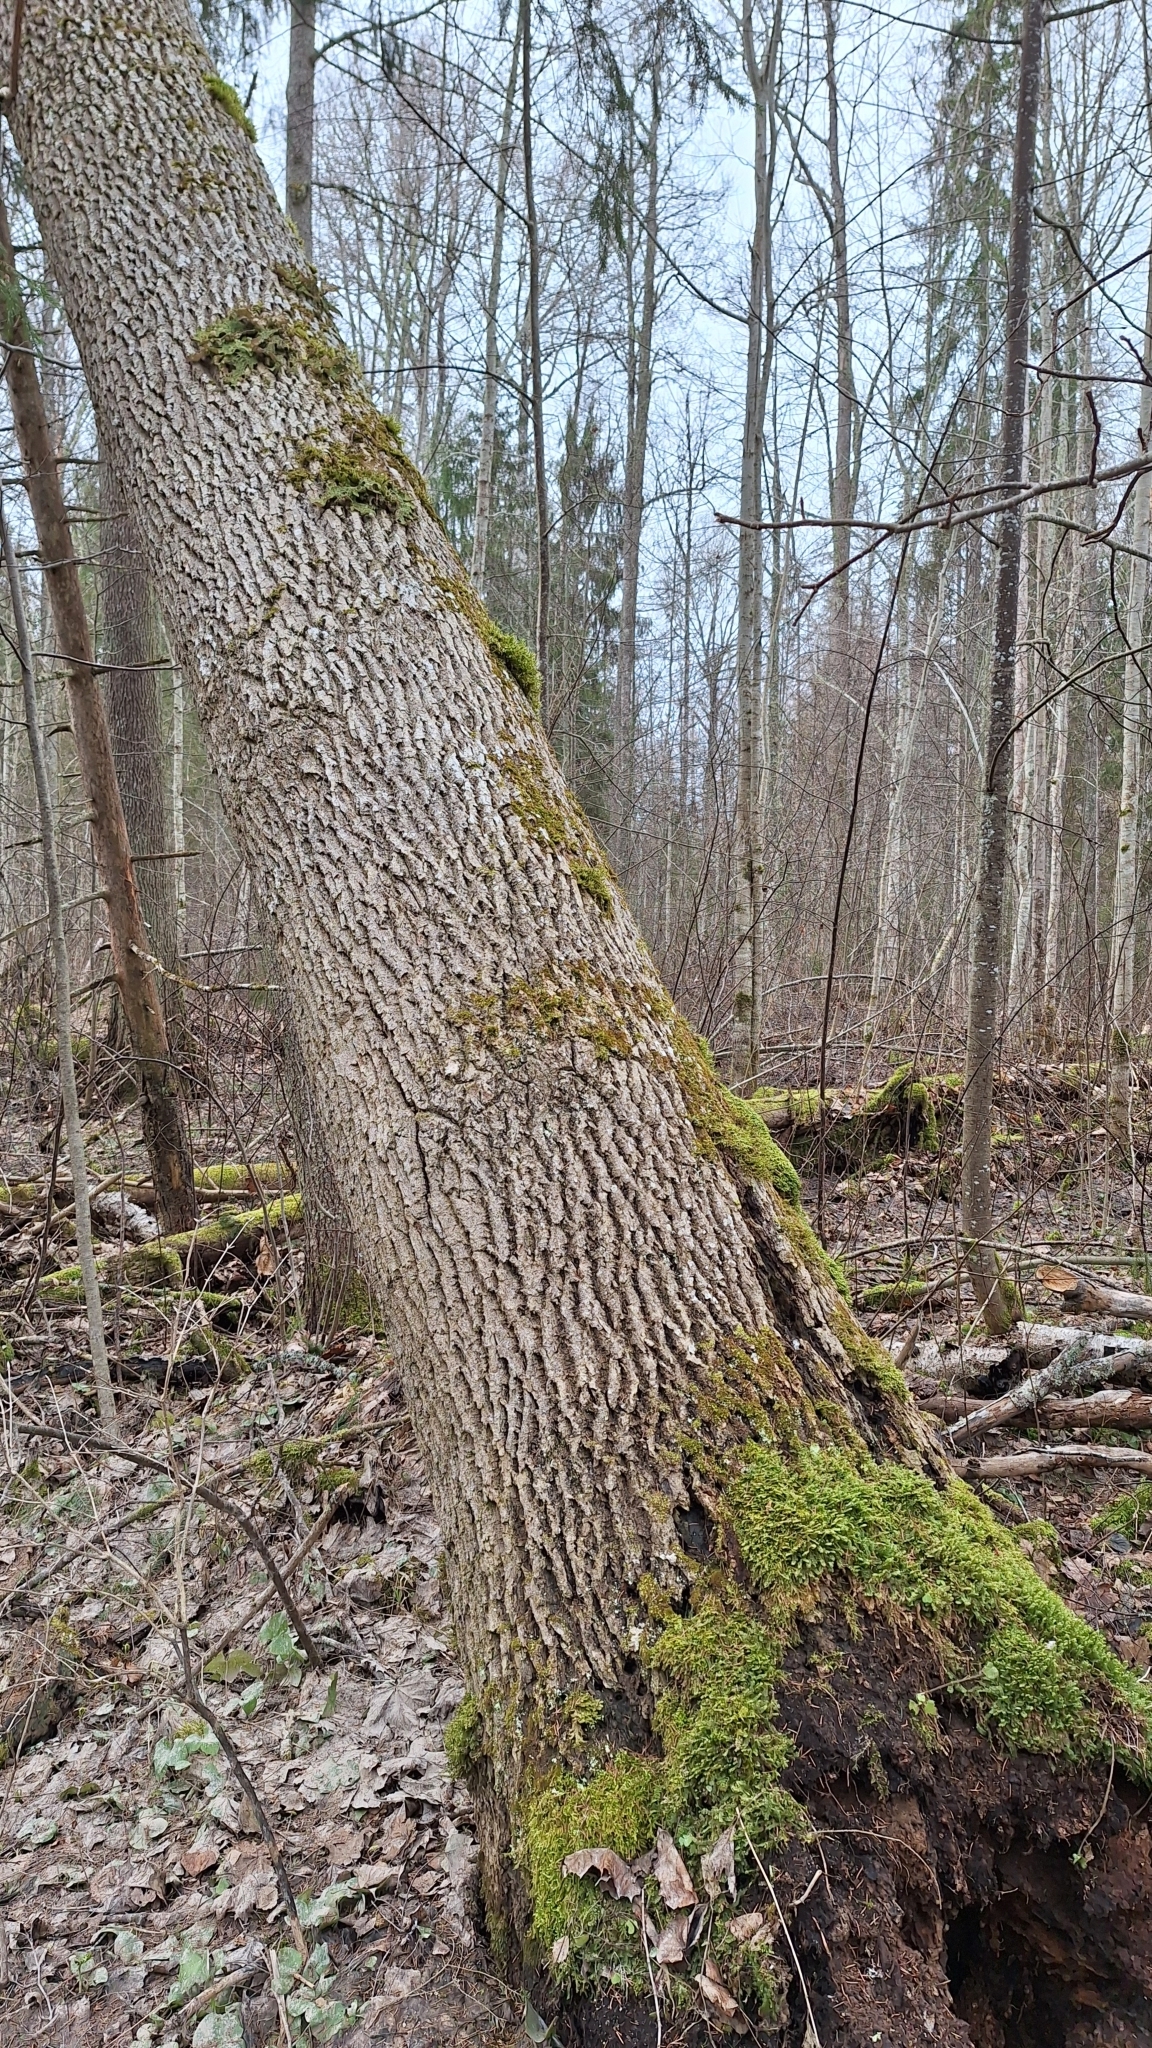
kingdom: Fungi
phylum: Ascomycota
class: Lecanoromycetes
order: Peltigerales
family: Lobariaceae
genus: Lobaria
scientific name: Lobaria pulmonaria
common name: Lungwort
